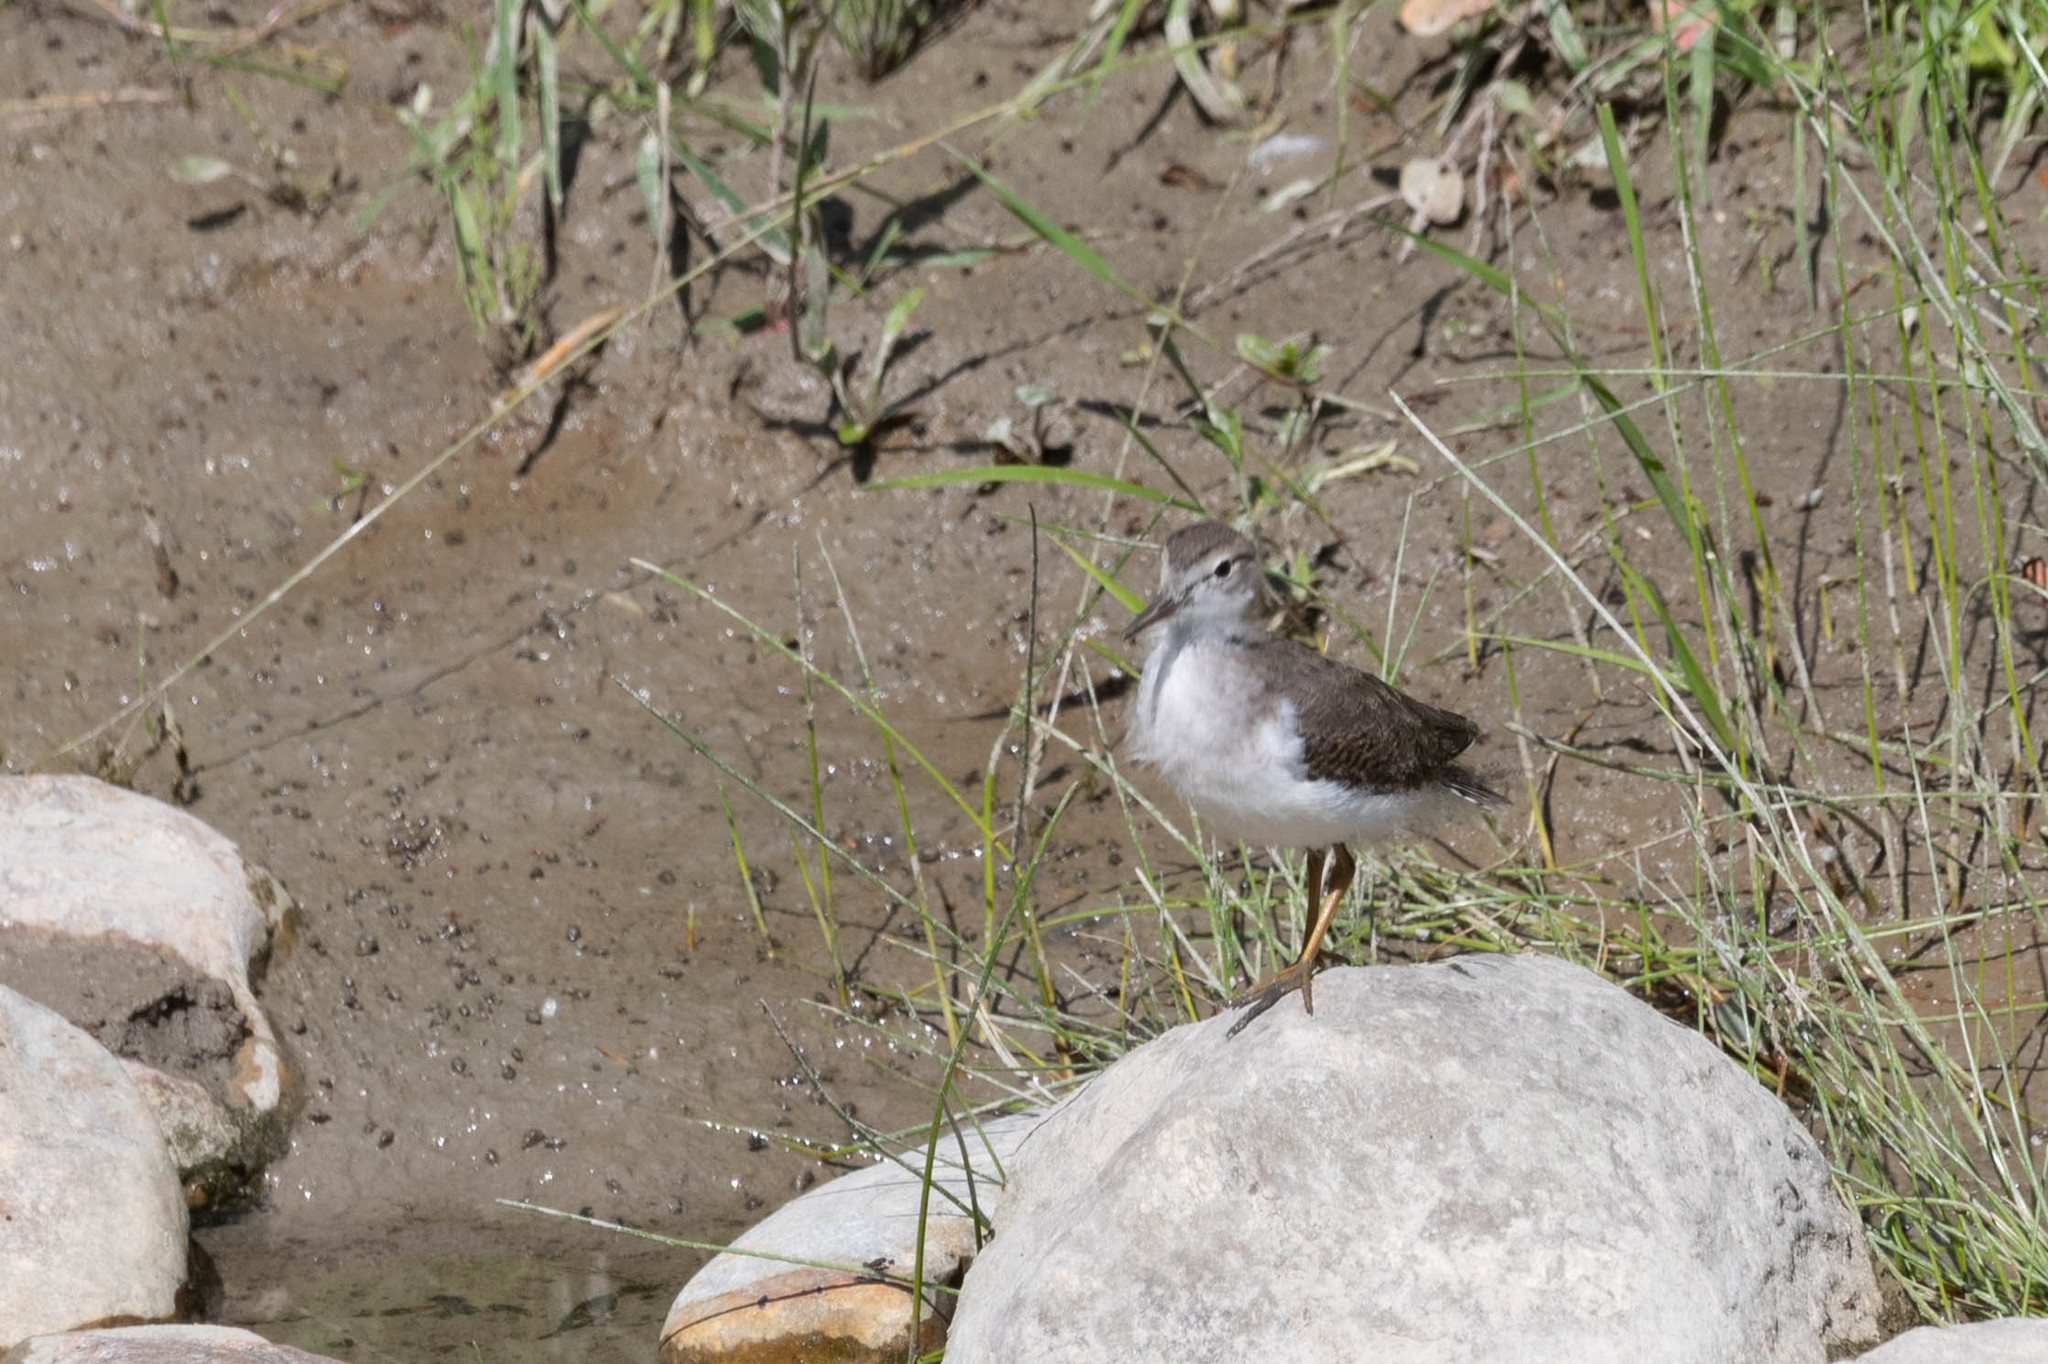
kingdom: Animalia
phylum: Chordata
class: Aves
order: Charadriiformes
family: Scolopacidae
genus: Actitis
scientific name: Actitis macularius
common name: Spotted sandpiper
